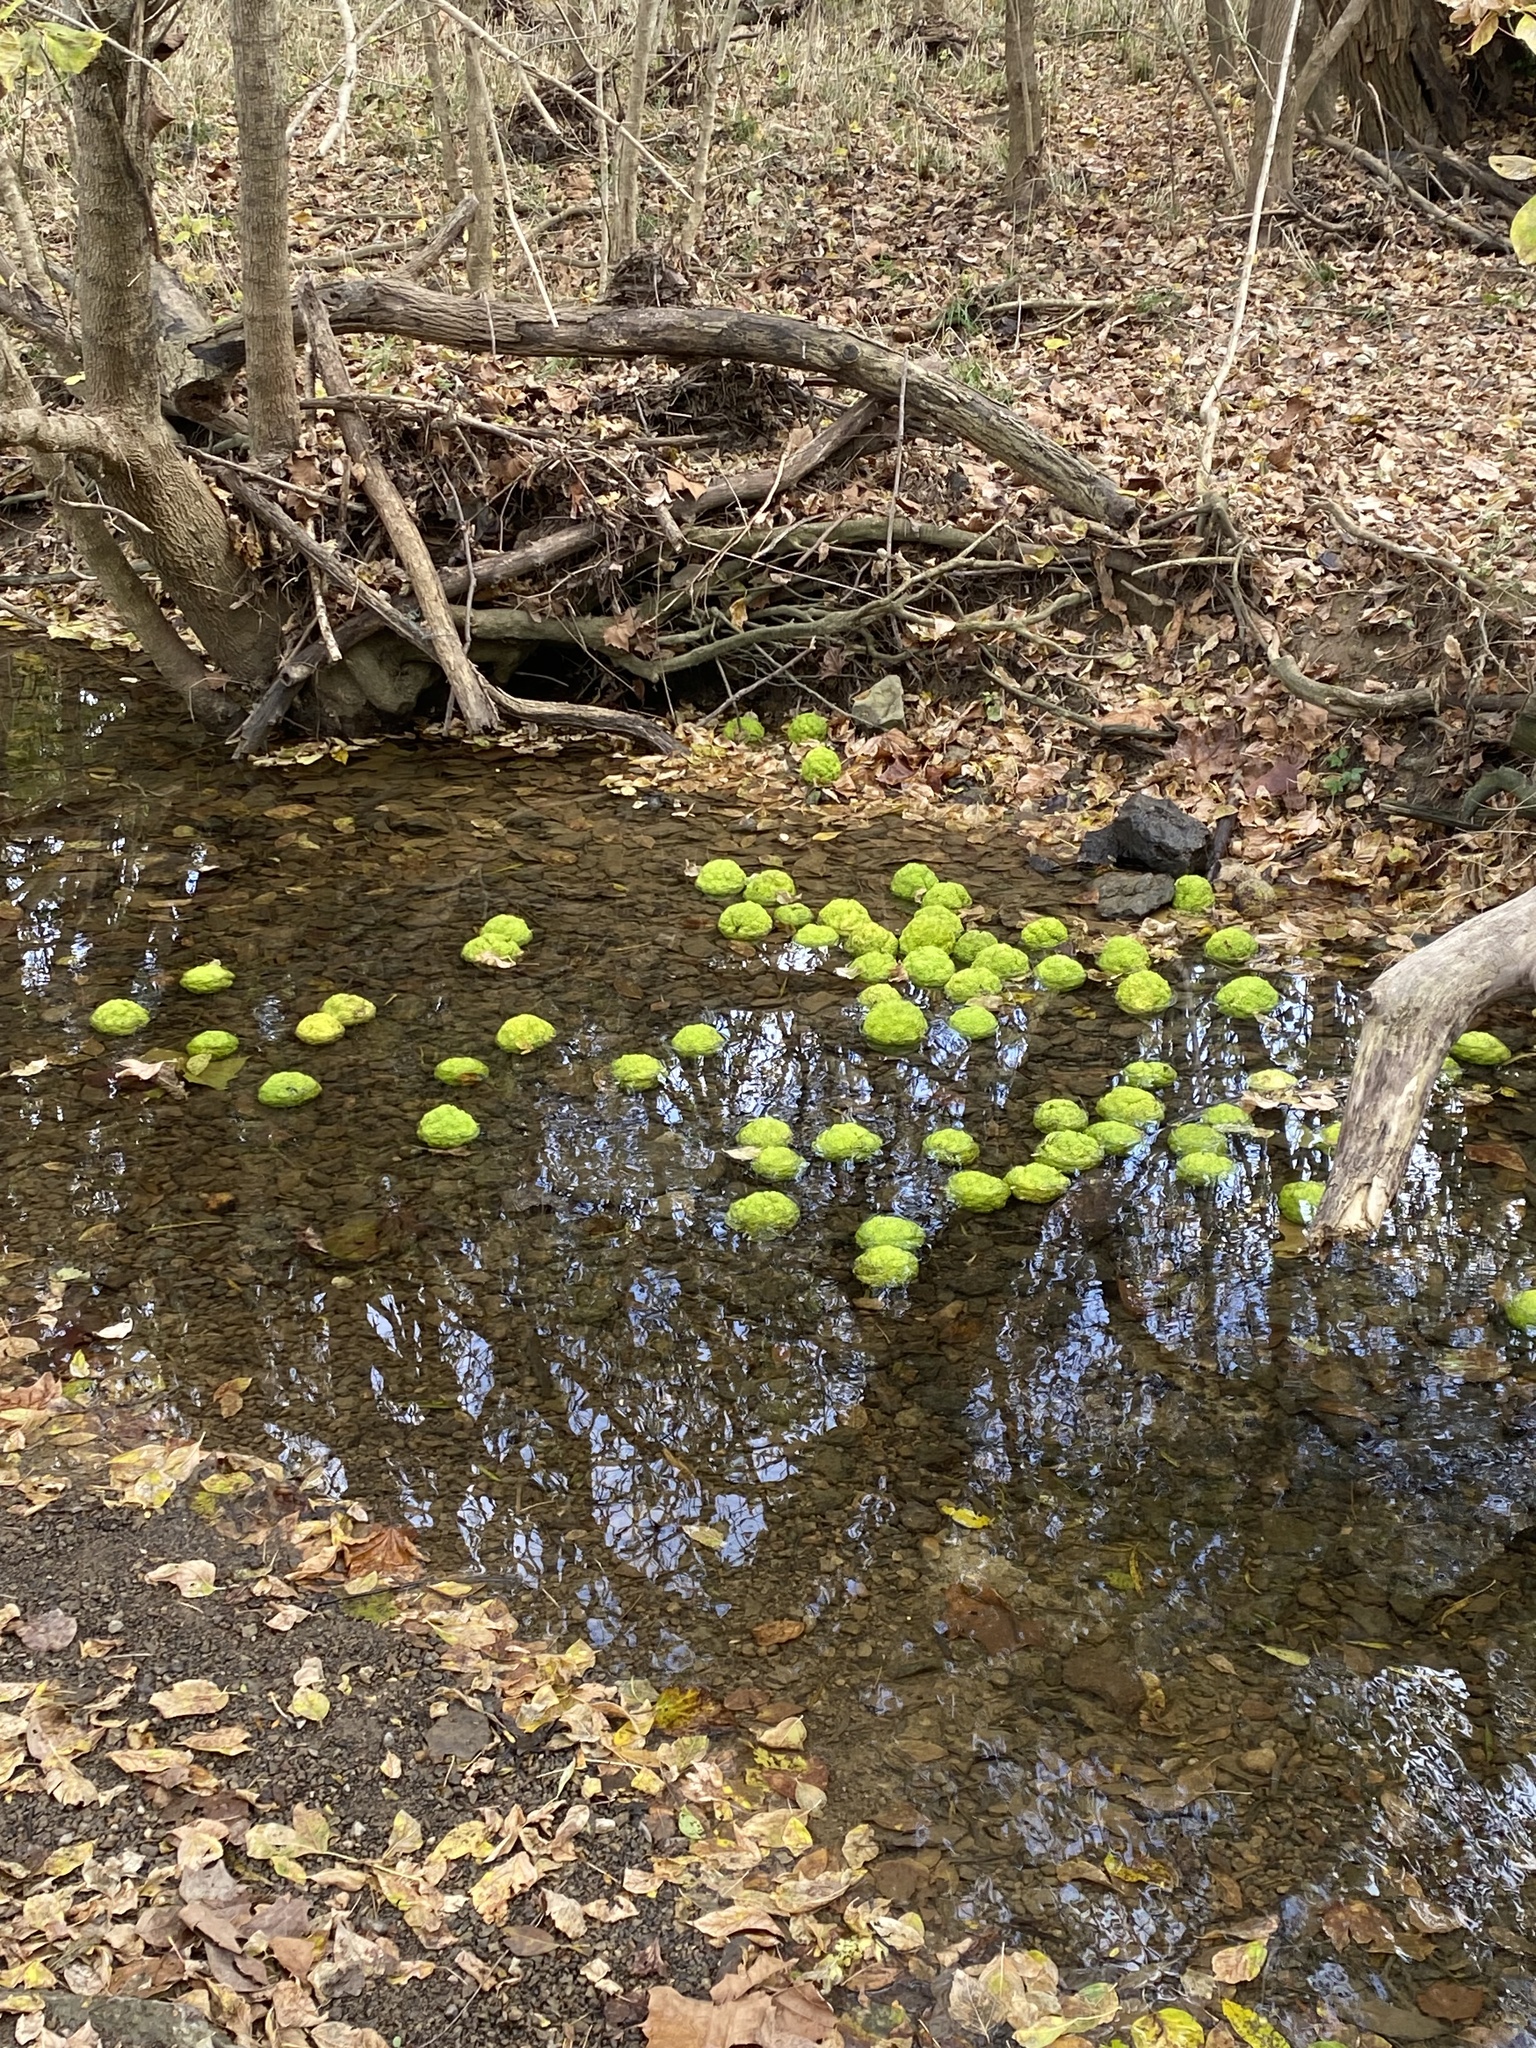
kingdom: Plantae
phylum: Tracheophyta
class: Magnoliopsida
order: Rosales
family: Moraceae
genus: Maclura
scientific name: Maclura pomifera
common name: Osage-orange
